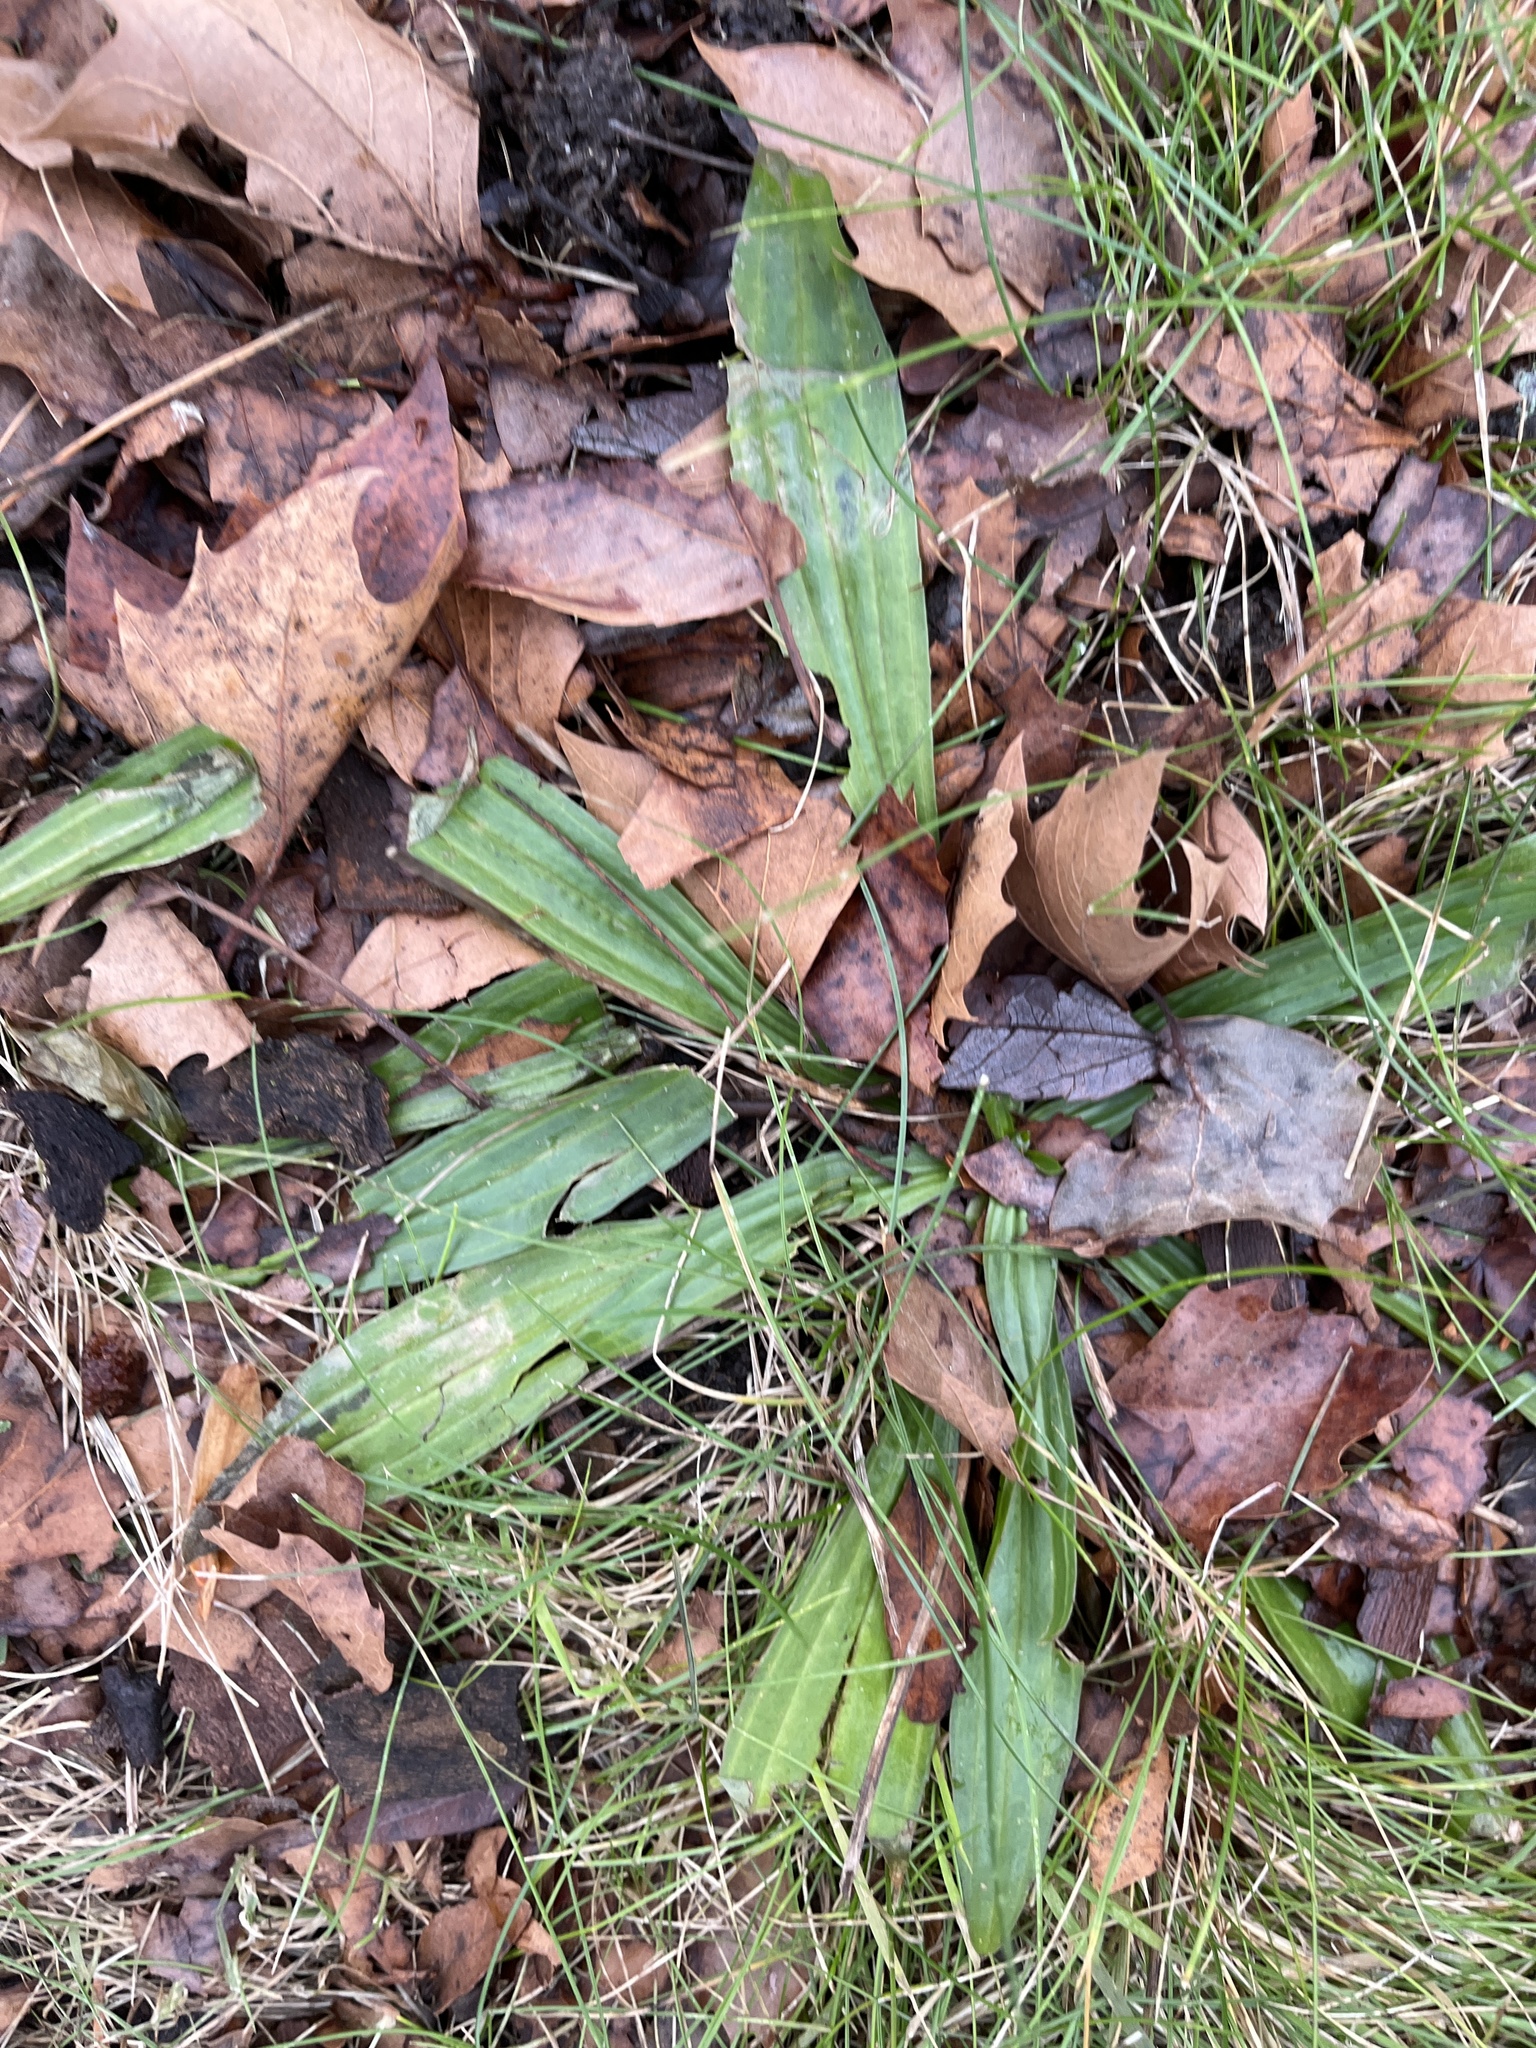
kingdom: Plantae
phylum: Tracheophyta
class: Magnoliopsida
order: Lamiales
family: Plantaginaceae
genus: Plantago
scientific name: Plantago lanceolata
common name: Ribwort plantain
